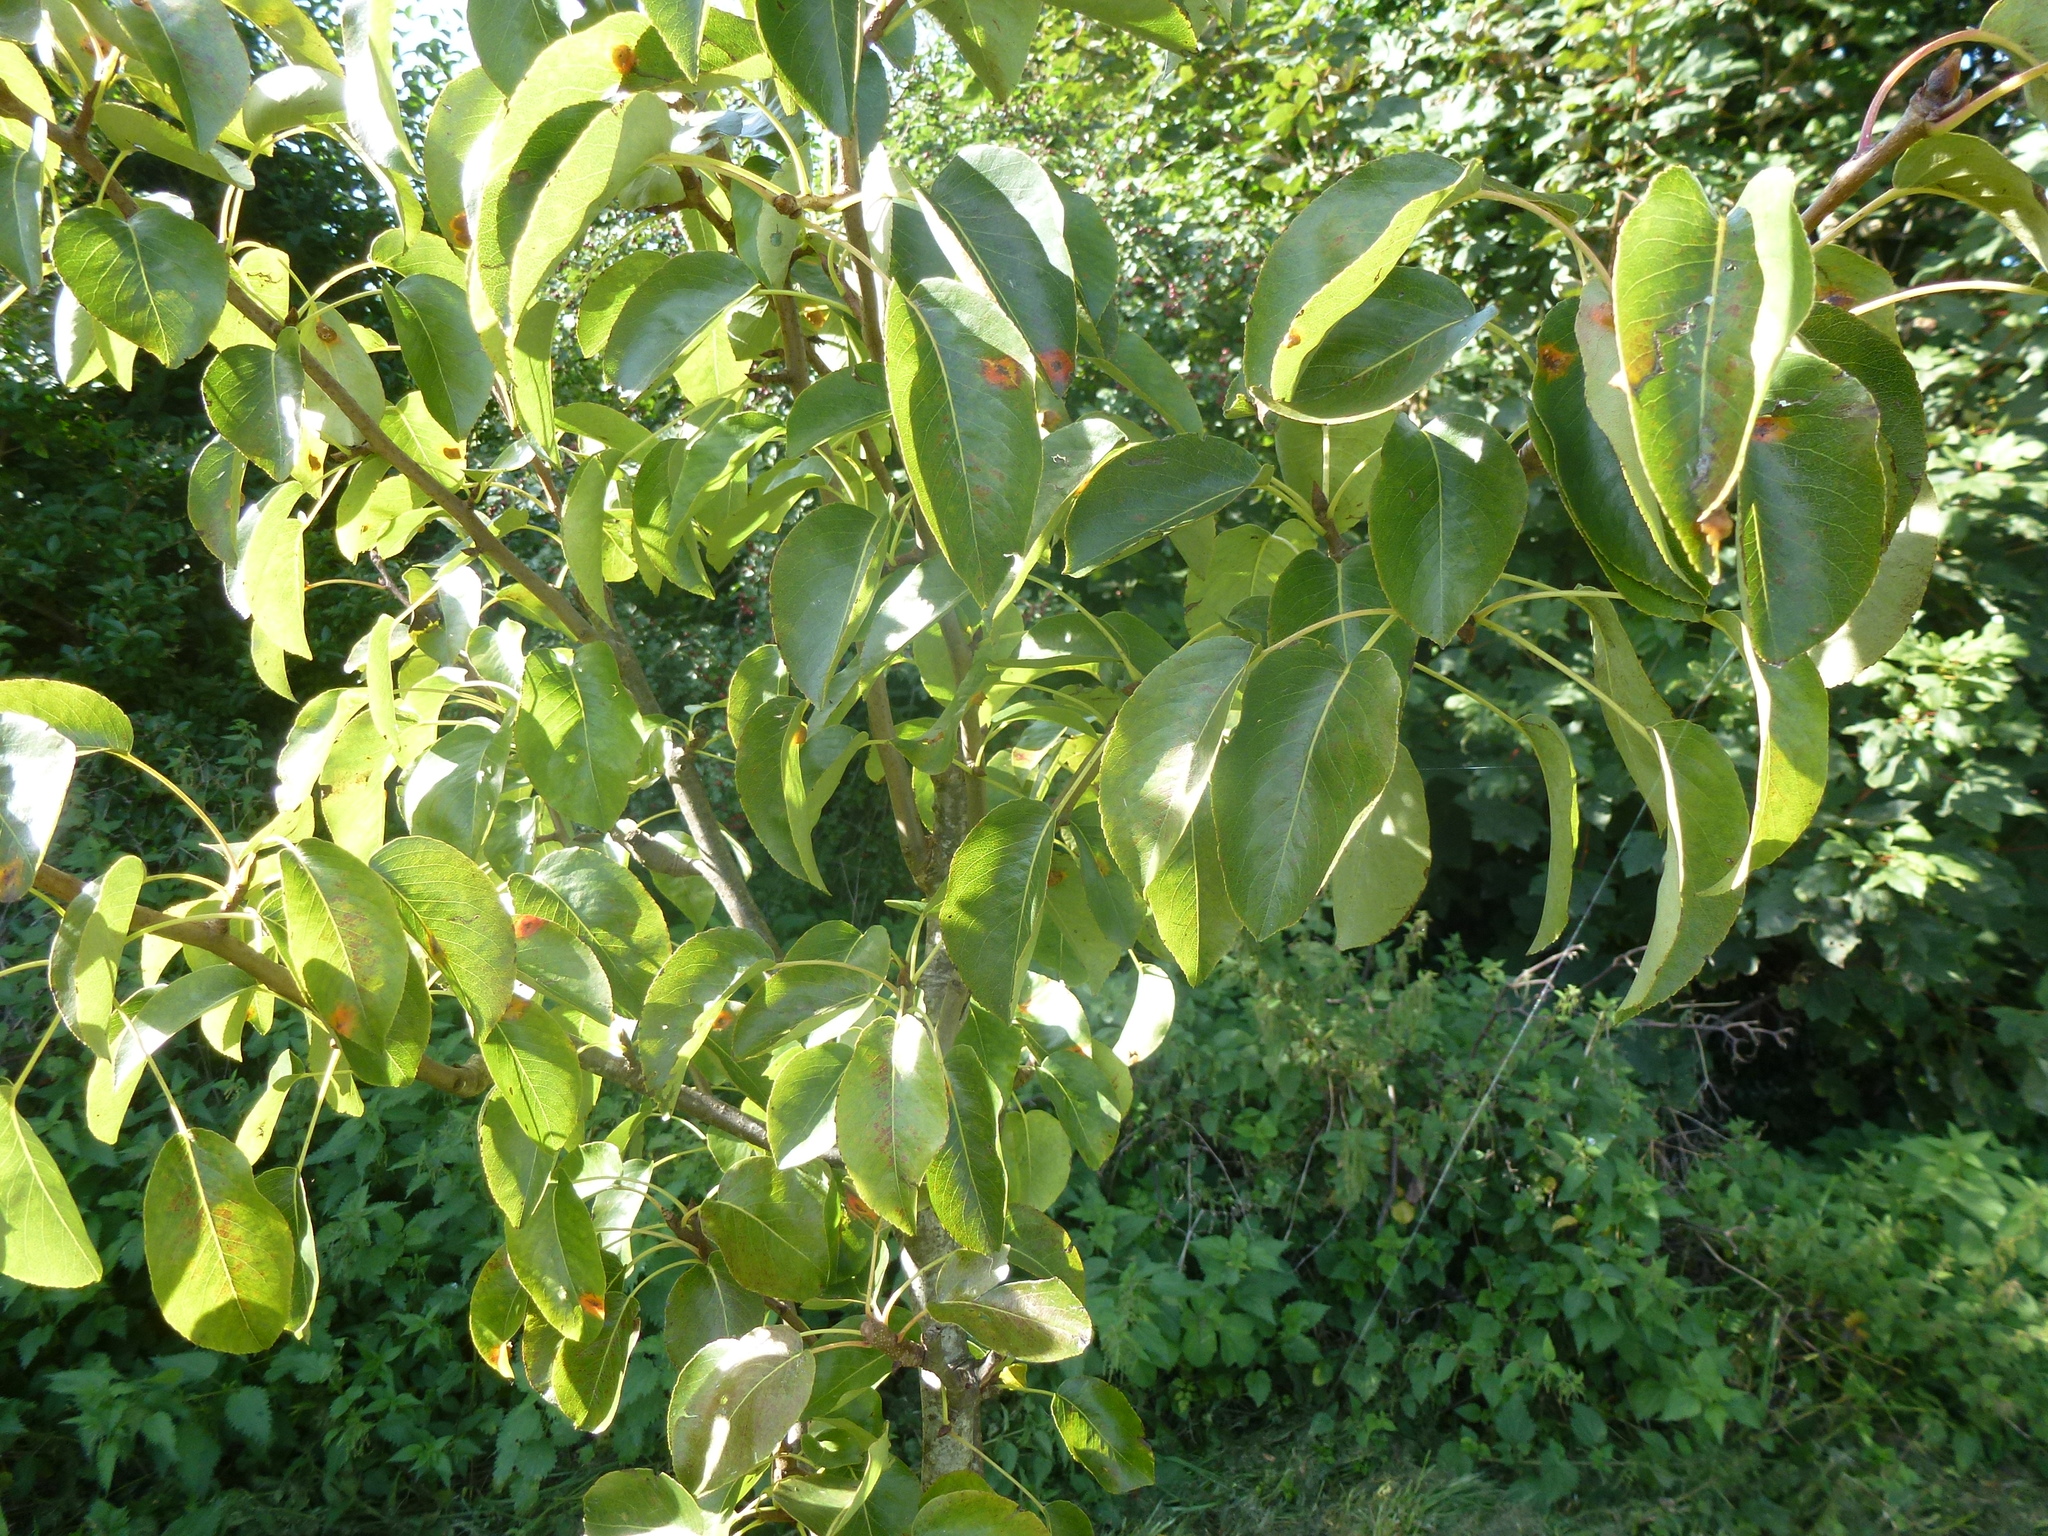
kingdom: Plantae
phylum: Tracheophyta
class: Magnoliopsida
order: Rosales
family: Rosaceae
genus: Pyrus
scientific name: Pyrus communis
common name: Pear
